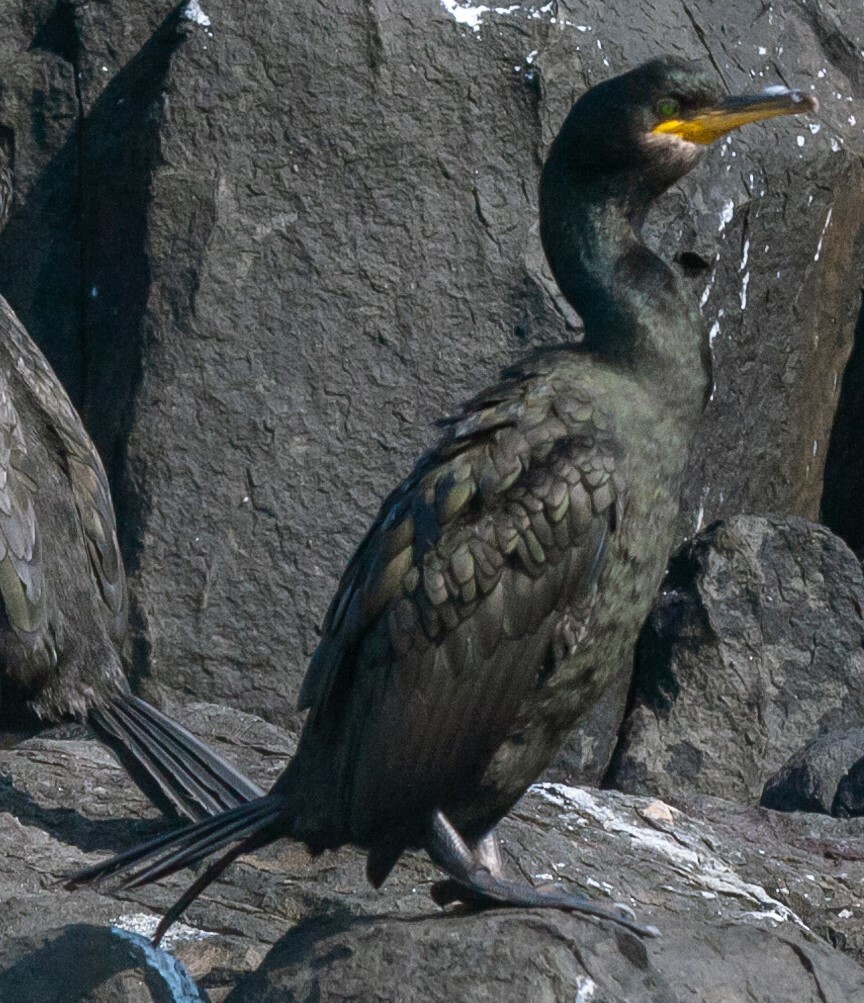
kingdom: Animalia
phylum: Chordata
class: Aves
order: Suliformes
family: Phalacrocoracidae
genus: Phalacrocorax
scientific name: Phalacrocorax aristotelis
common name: European shag
